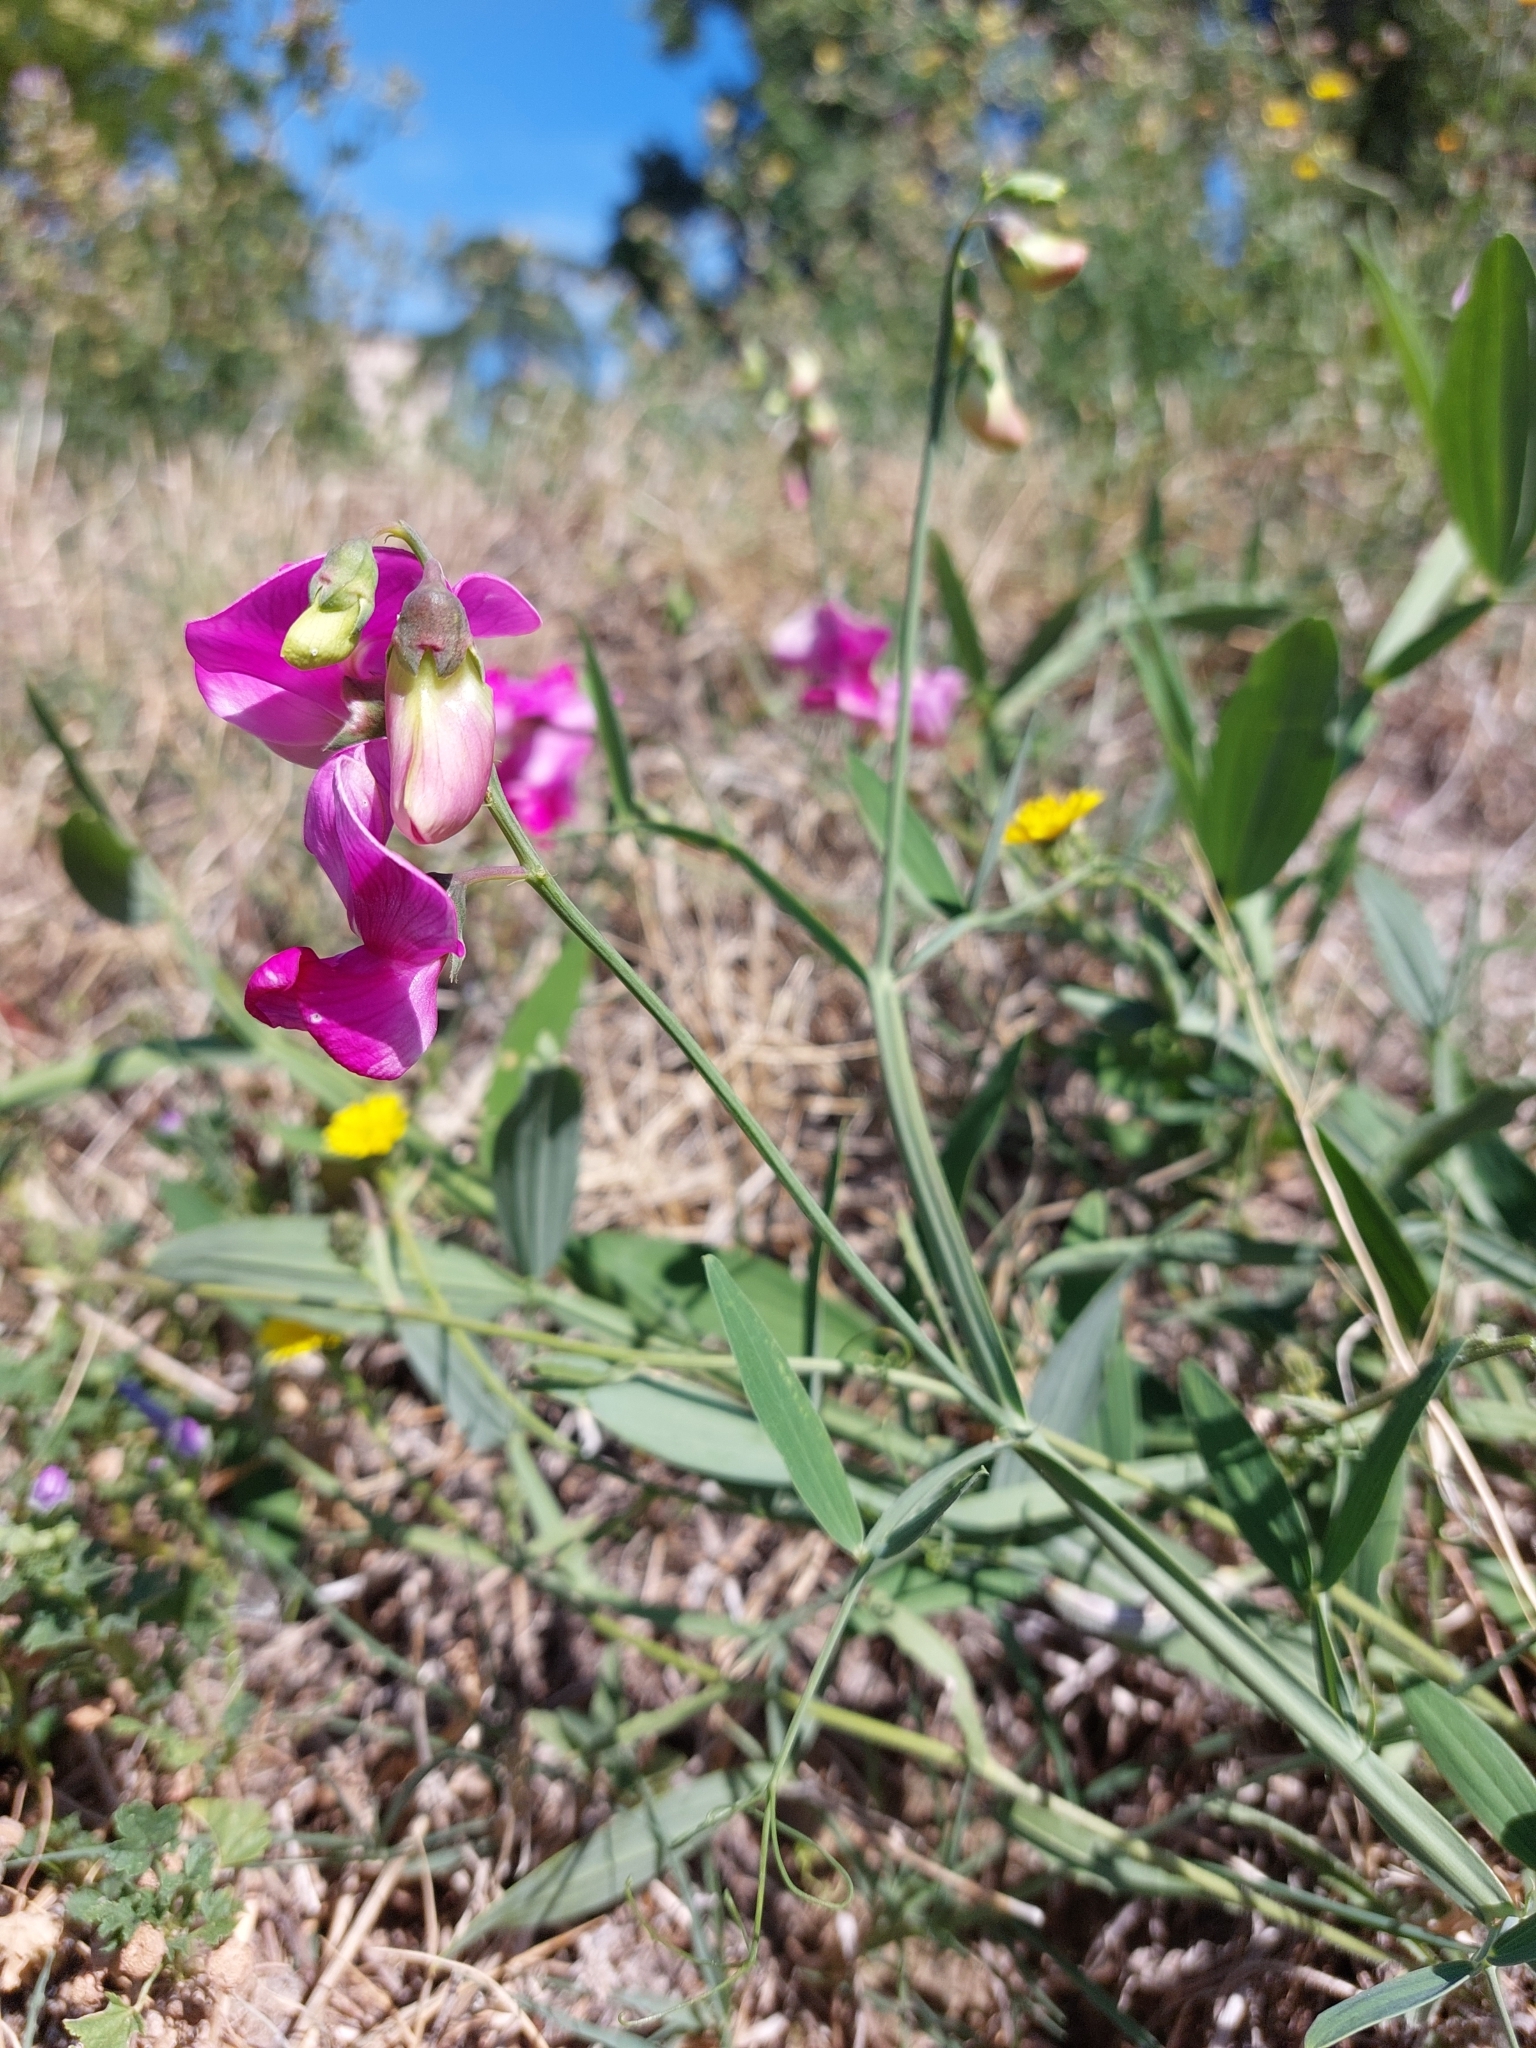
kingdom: Plantae
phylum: Tracheophyta
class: Magnoliopsida
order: Fabales
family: Fabaceae
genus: Lathyrus
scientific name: Lathyrus latifolius
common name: Perennial pea
